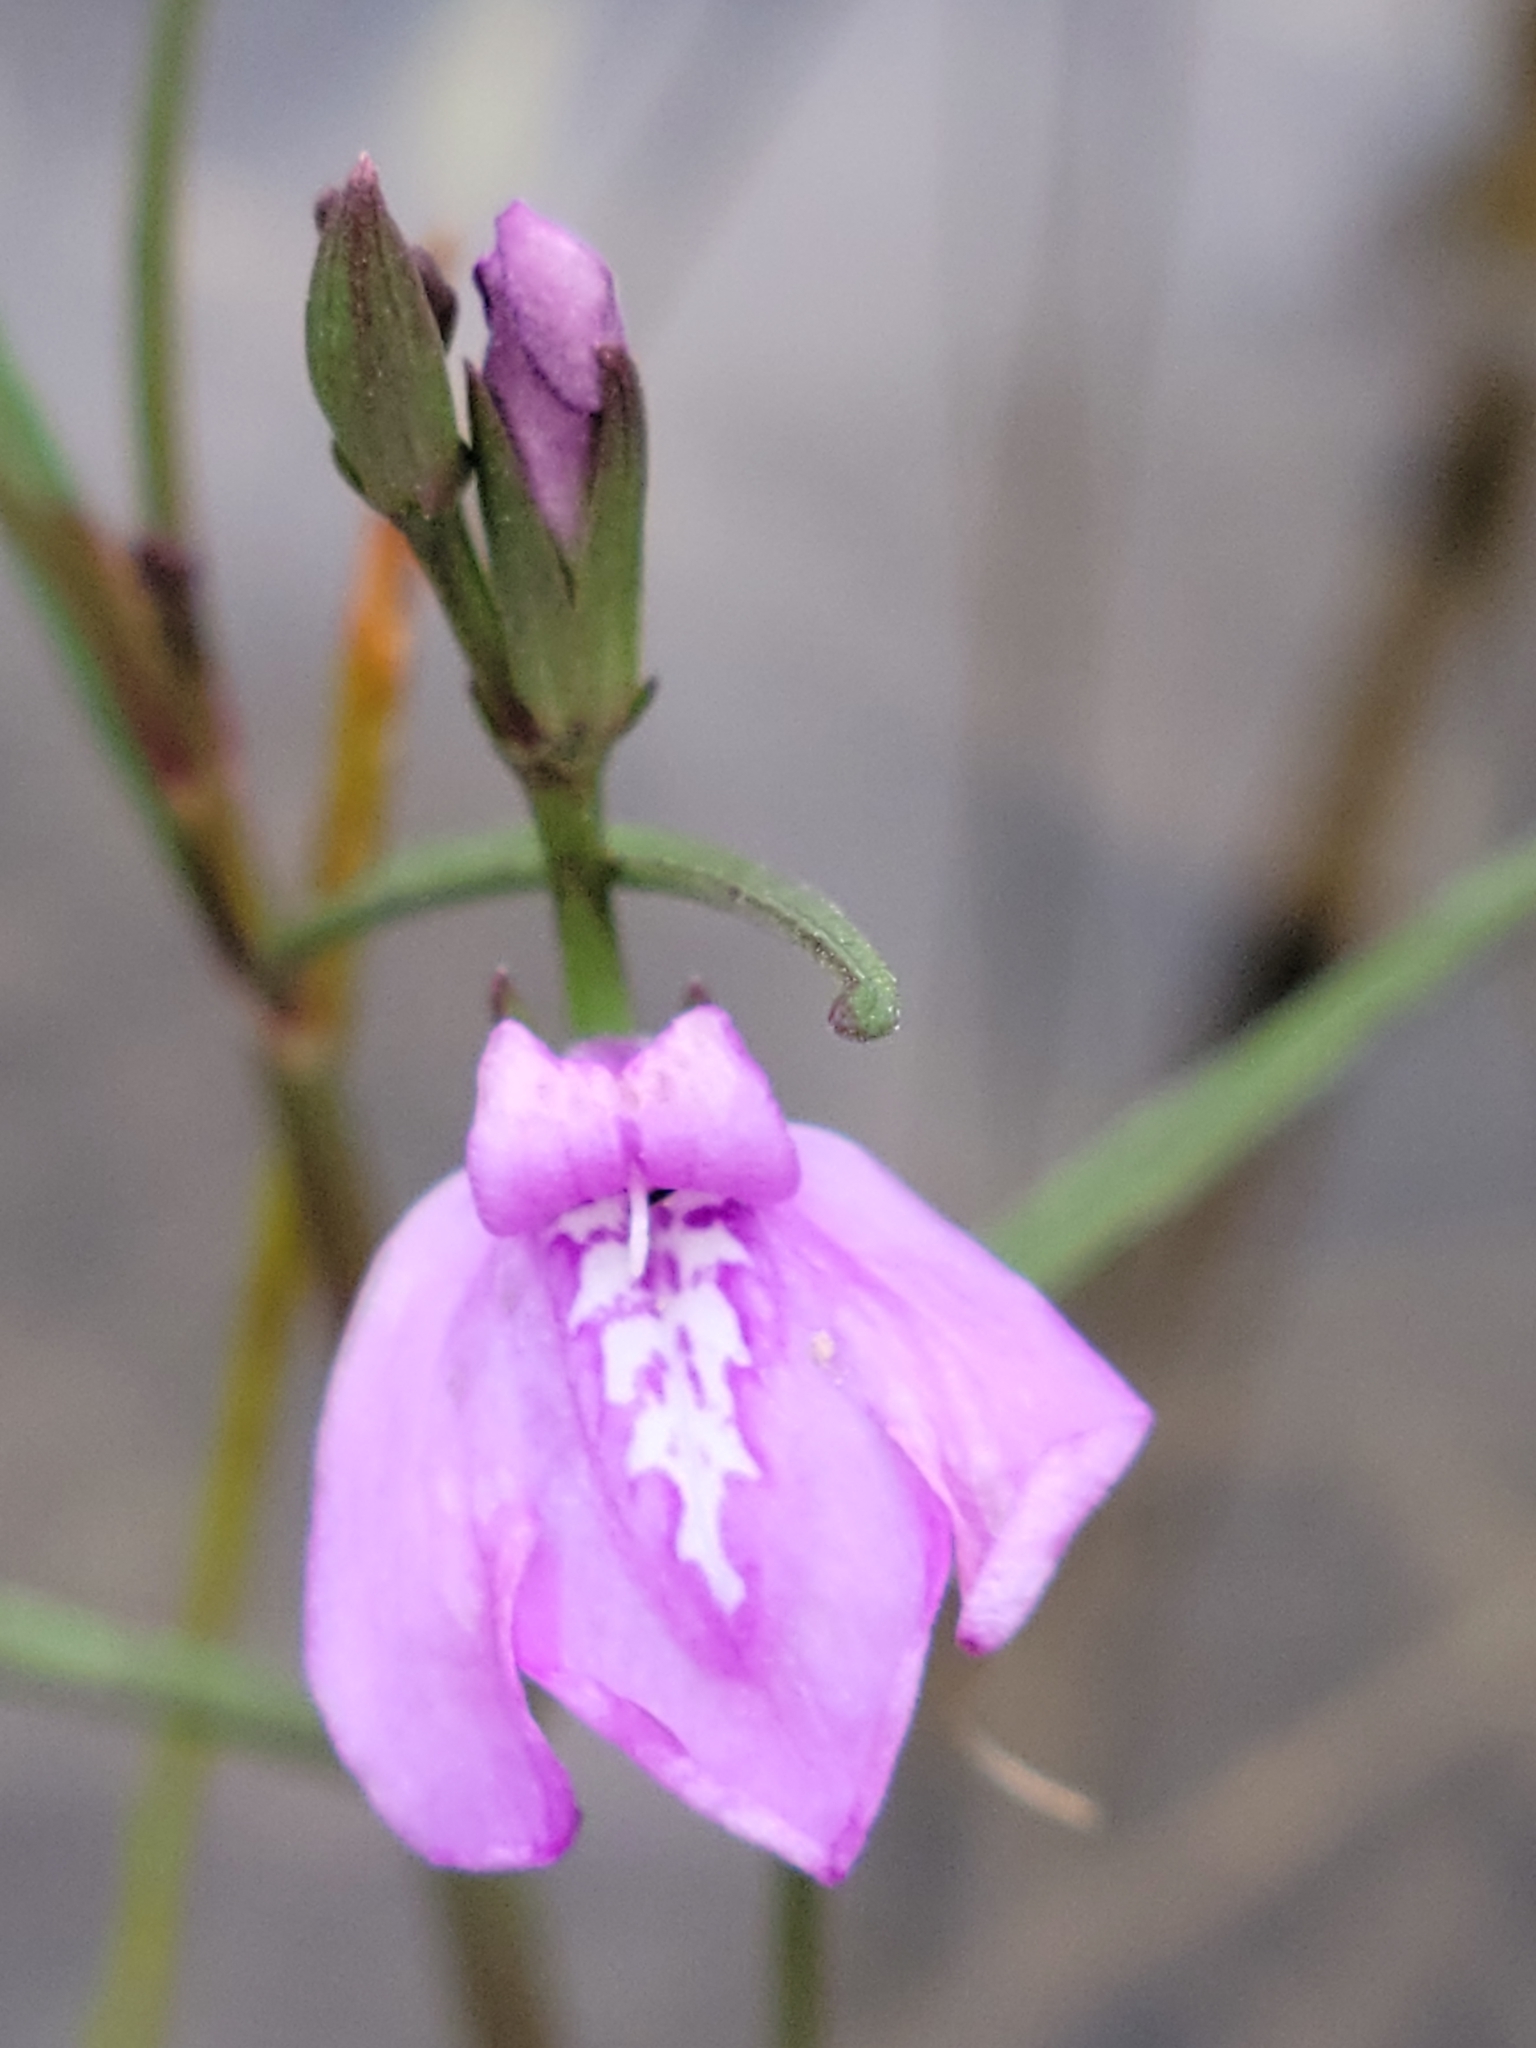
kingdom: Plantae
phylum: Tracheophyta
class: Magnoliopsida
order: Lamiales
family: Acanthaceae
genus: Dianthera
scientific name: Dianthera angusta
